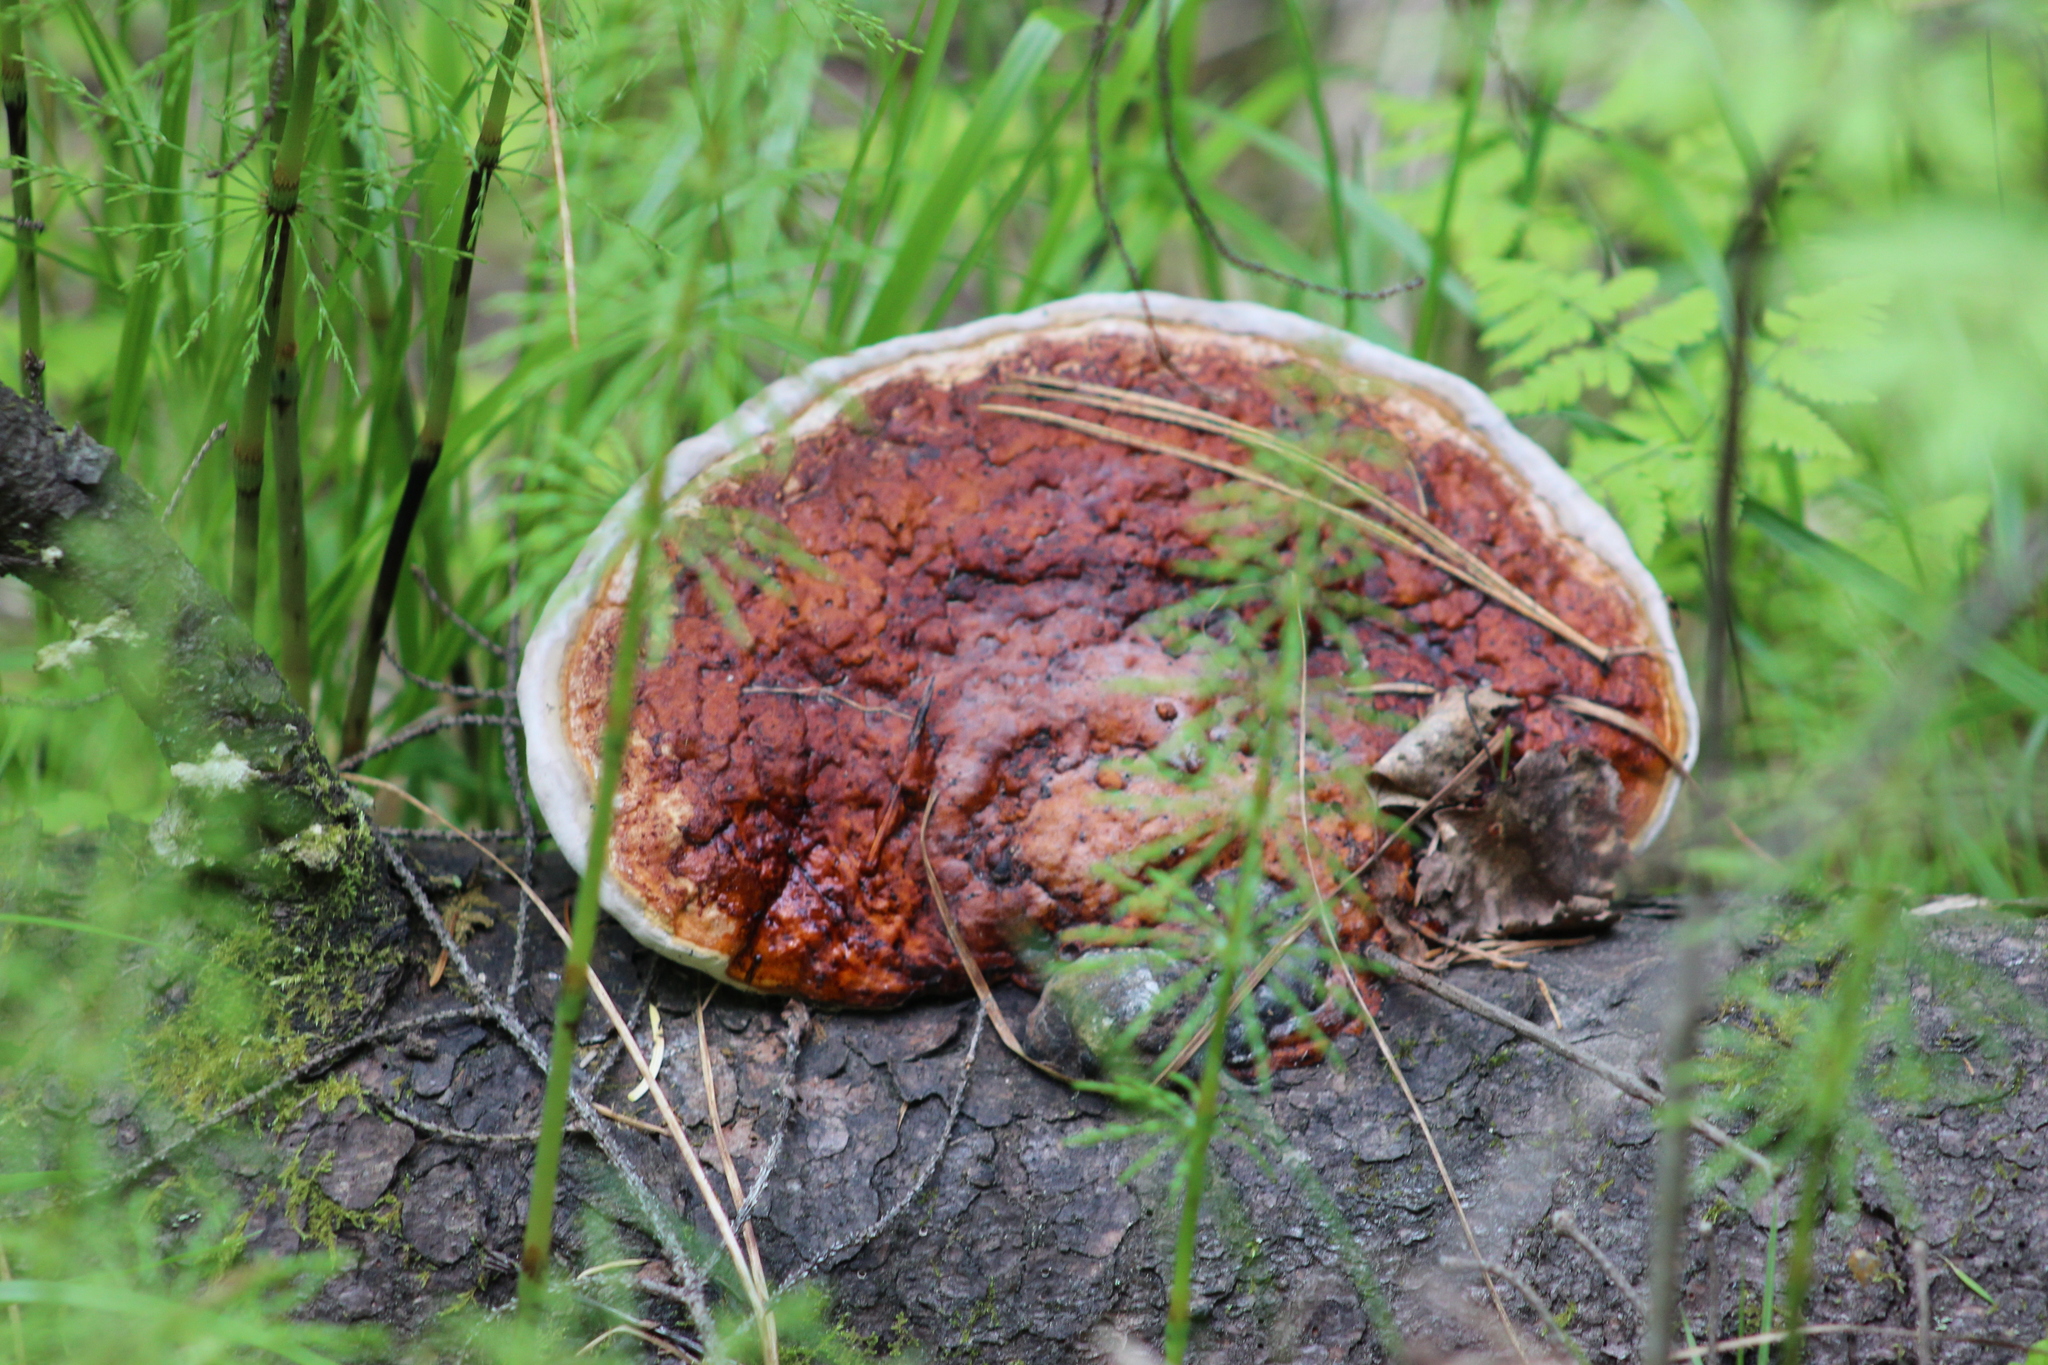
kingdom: Fungi
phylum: Basidiomycota
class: Agaricomycetes
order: Polyporales
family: Fomitopsidaceae
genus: Fomitopsis
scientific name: Fomitopsis pinicola
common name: Red-belted bracket
